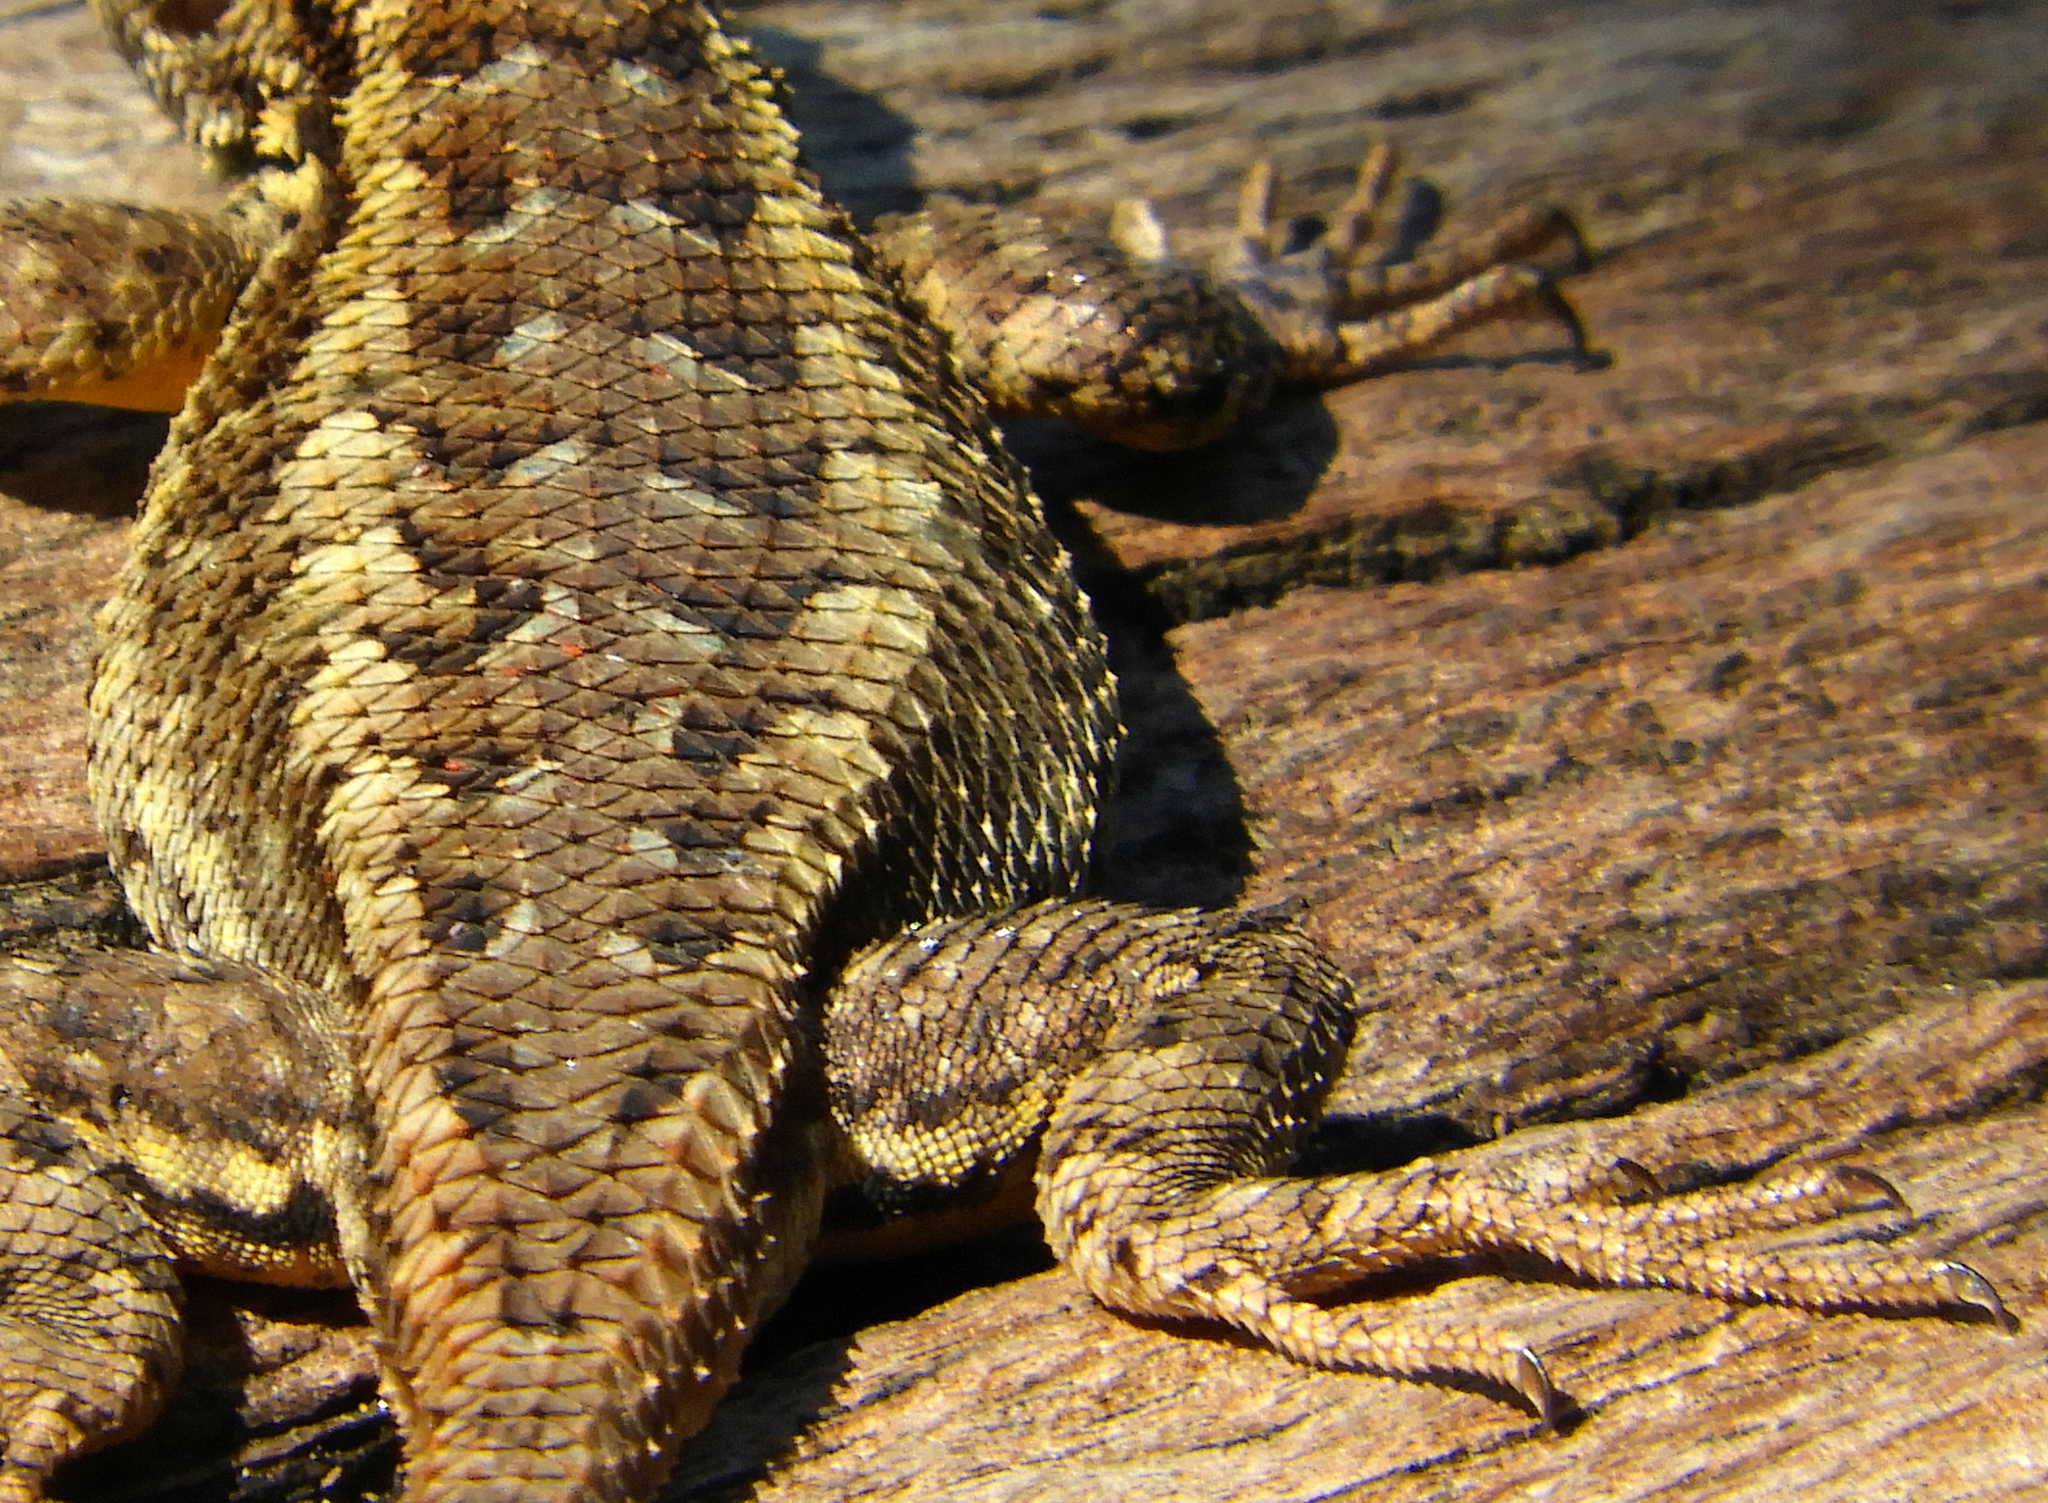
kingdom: Animalia
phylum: Chordata
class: Squamata
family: Phrynosomatidae
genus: Sceloporus
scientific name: Sceloporus occidentalis
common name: Western fence lizard
